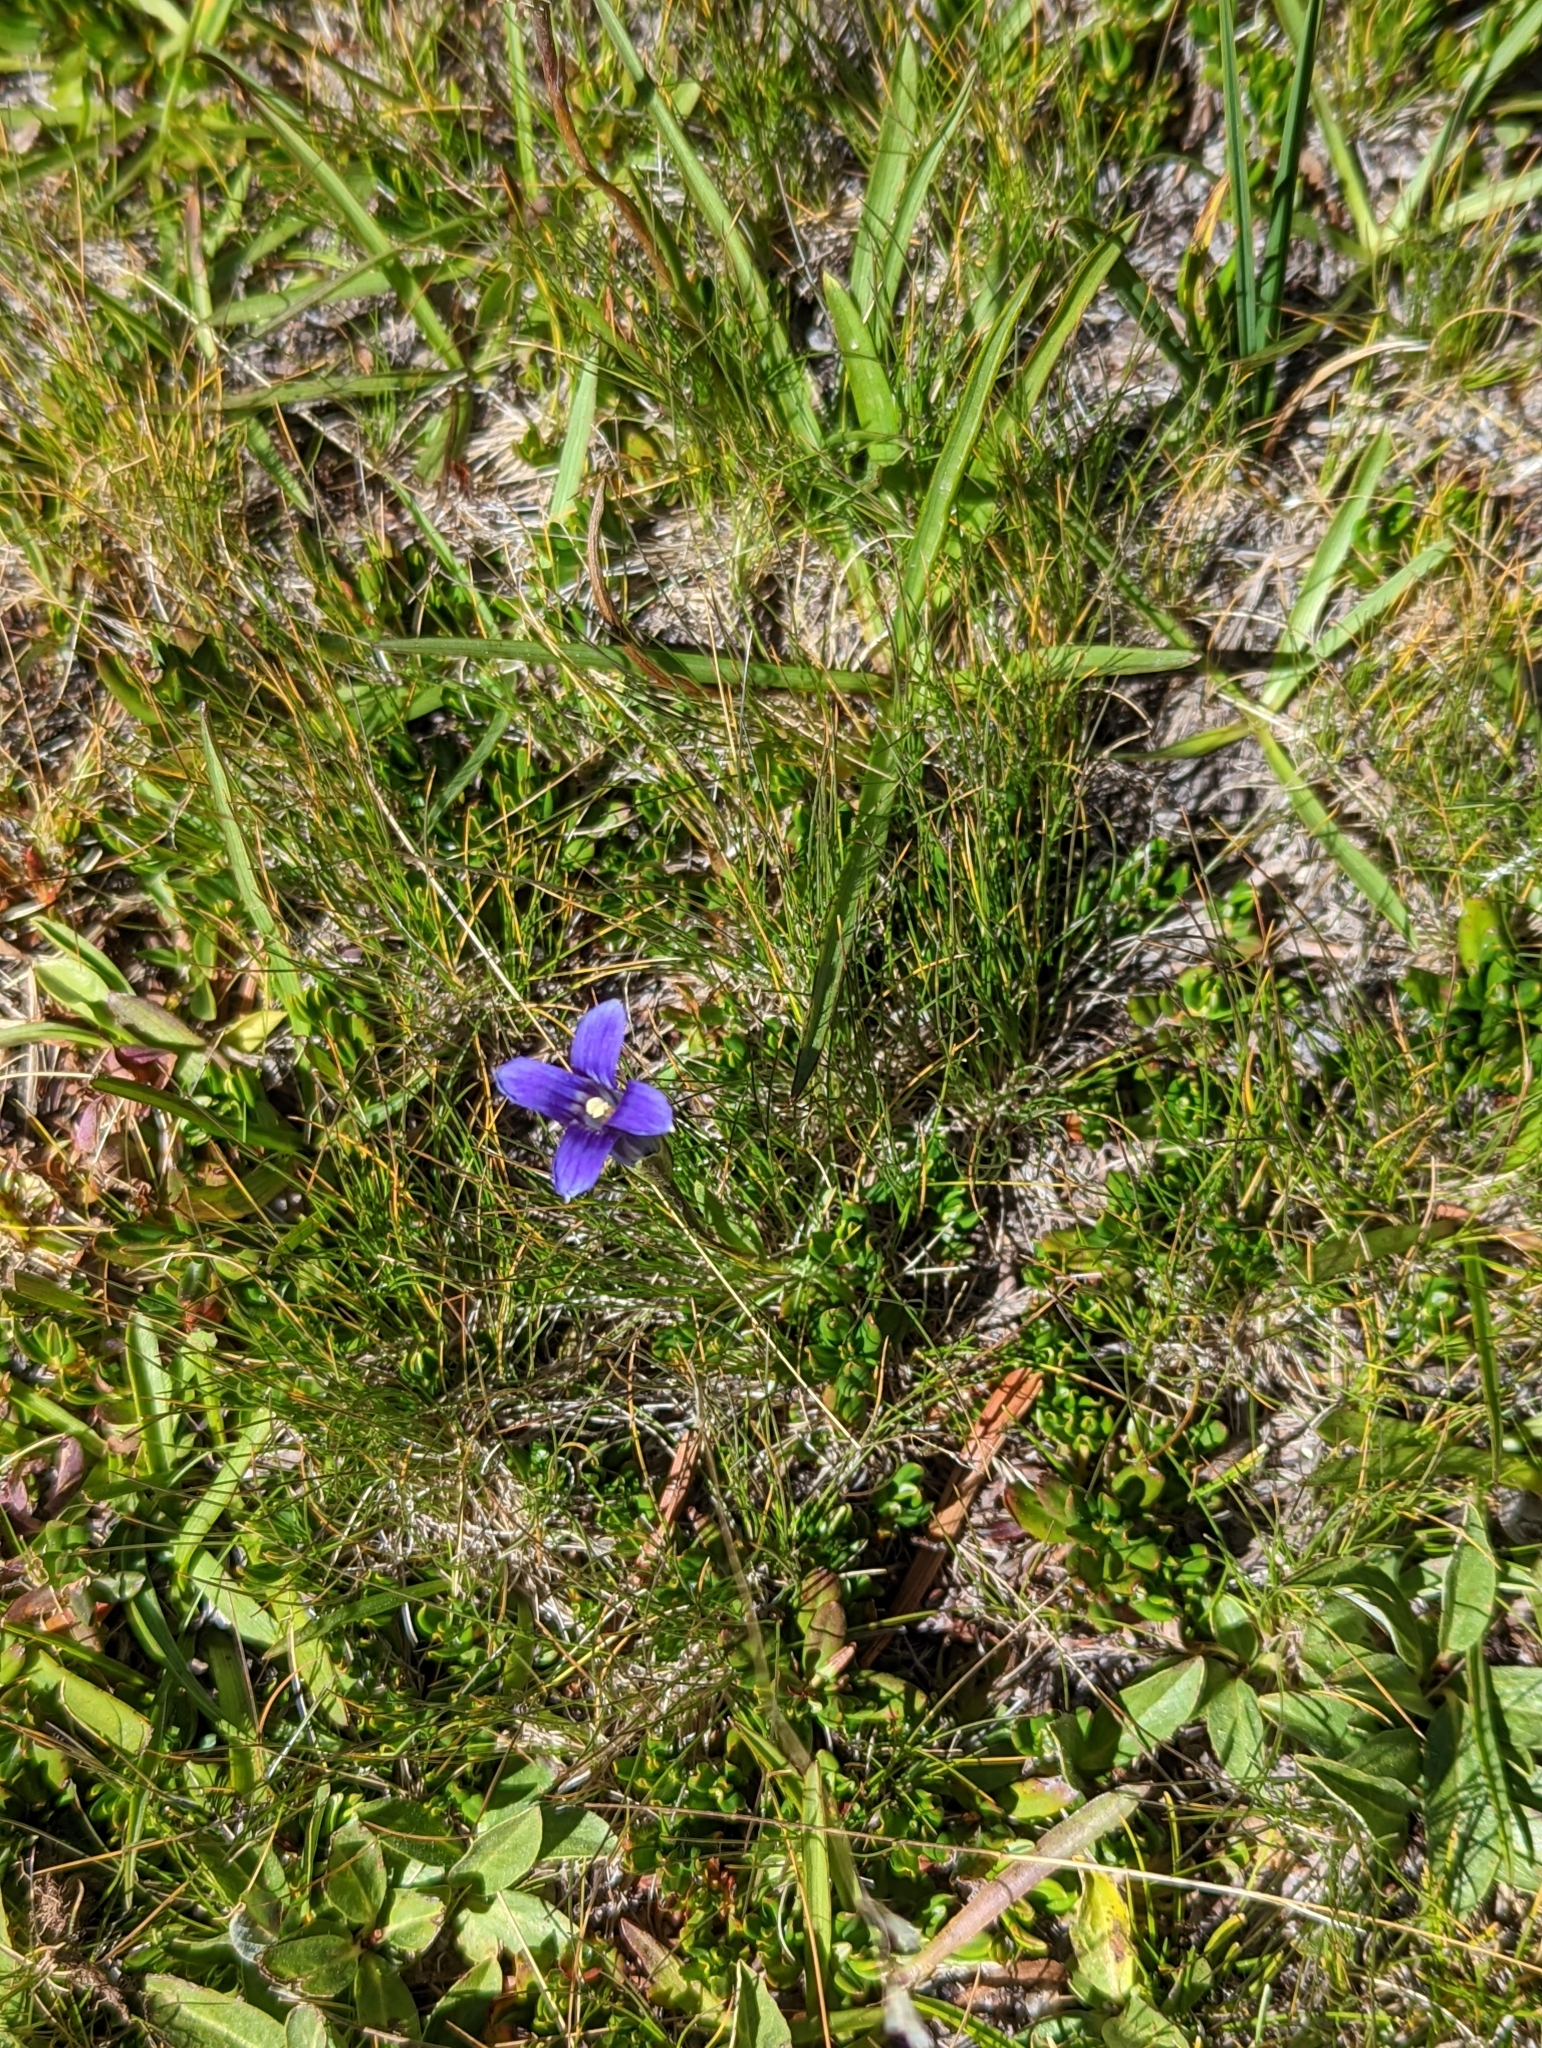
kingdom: Plantae
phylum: Tracheophyta
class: Magnoliopsida
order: Gentianales
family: Gentianaceae
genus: Gentianopsis
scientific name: Gentianopsis holopetala
